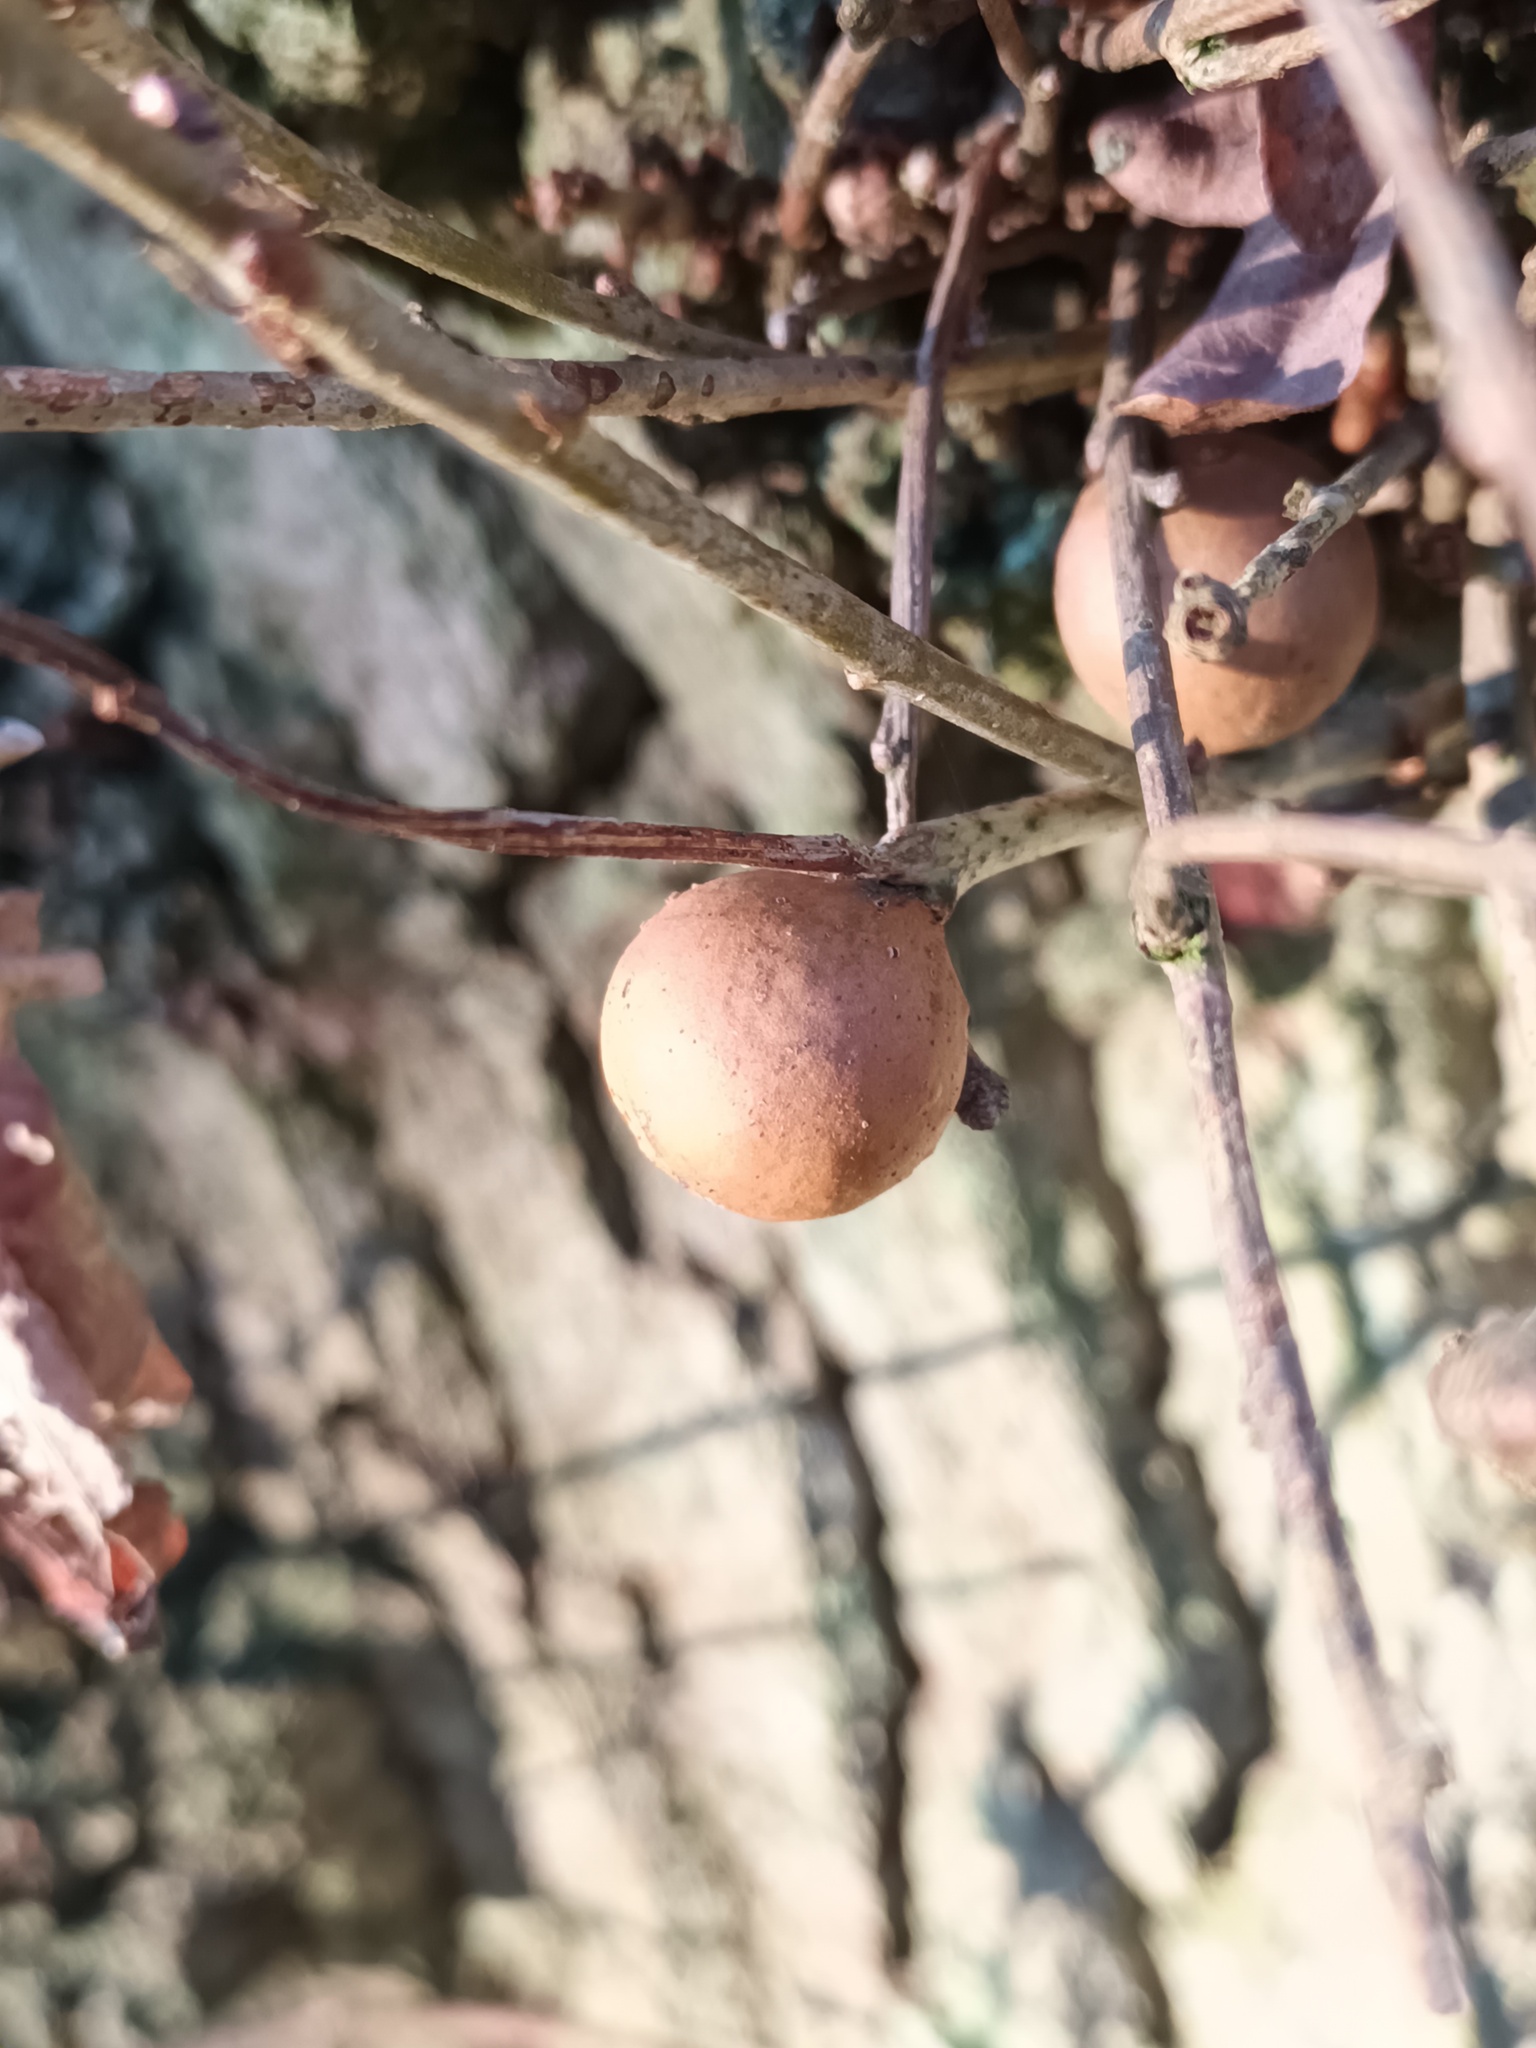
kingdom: Animalia
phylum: Arthropoda
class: Insecta
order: Hymenoptera
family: Cynipidae
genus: Andricus
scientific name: Andricus kollari
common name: Marble gall
